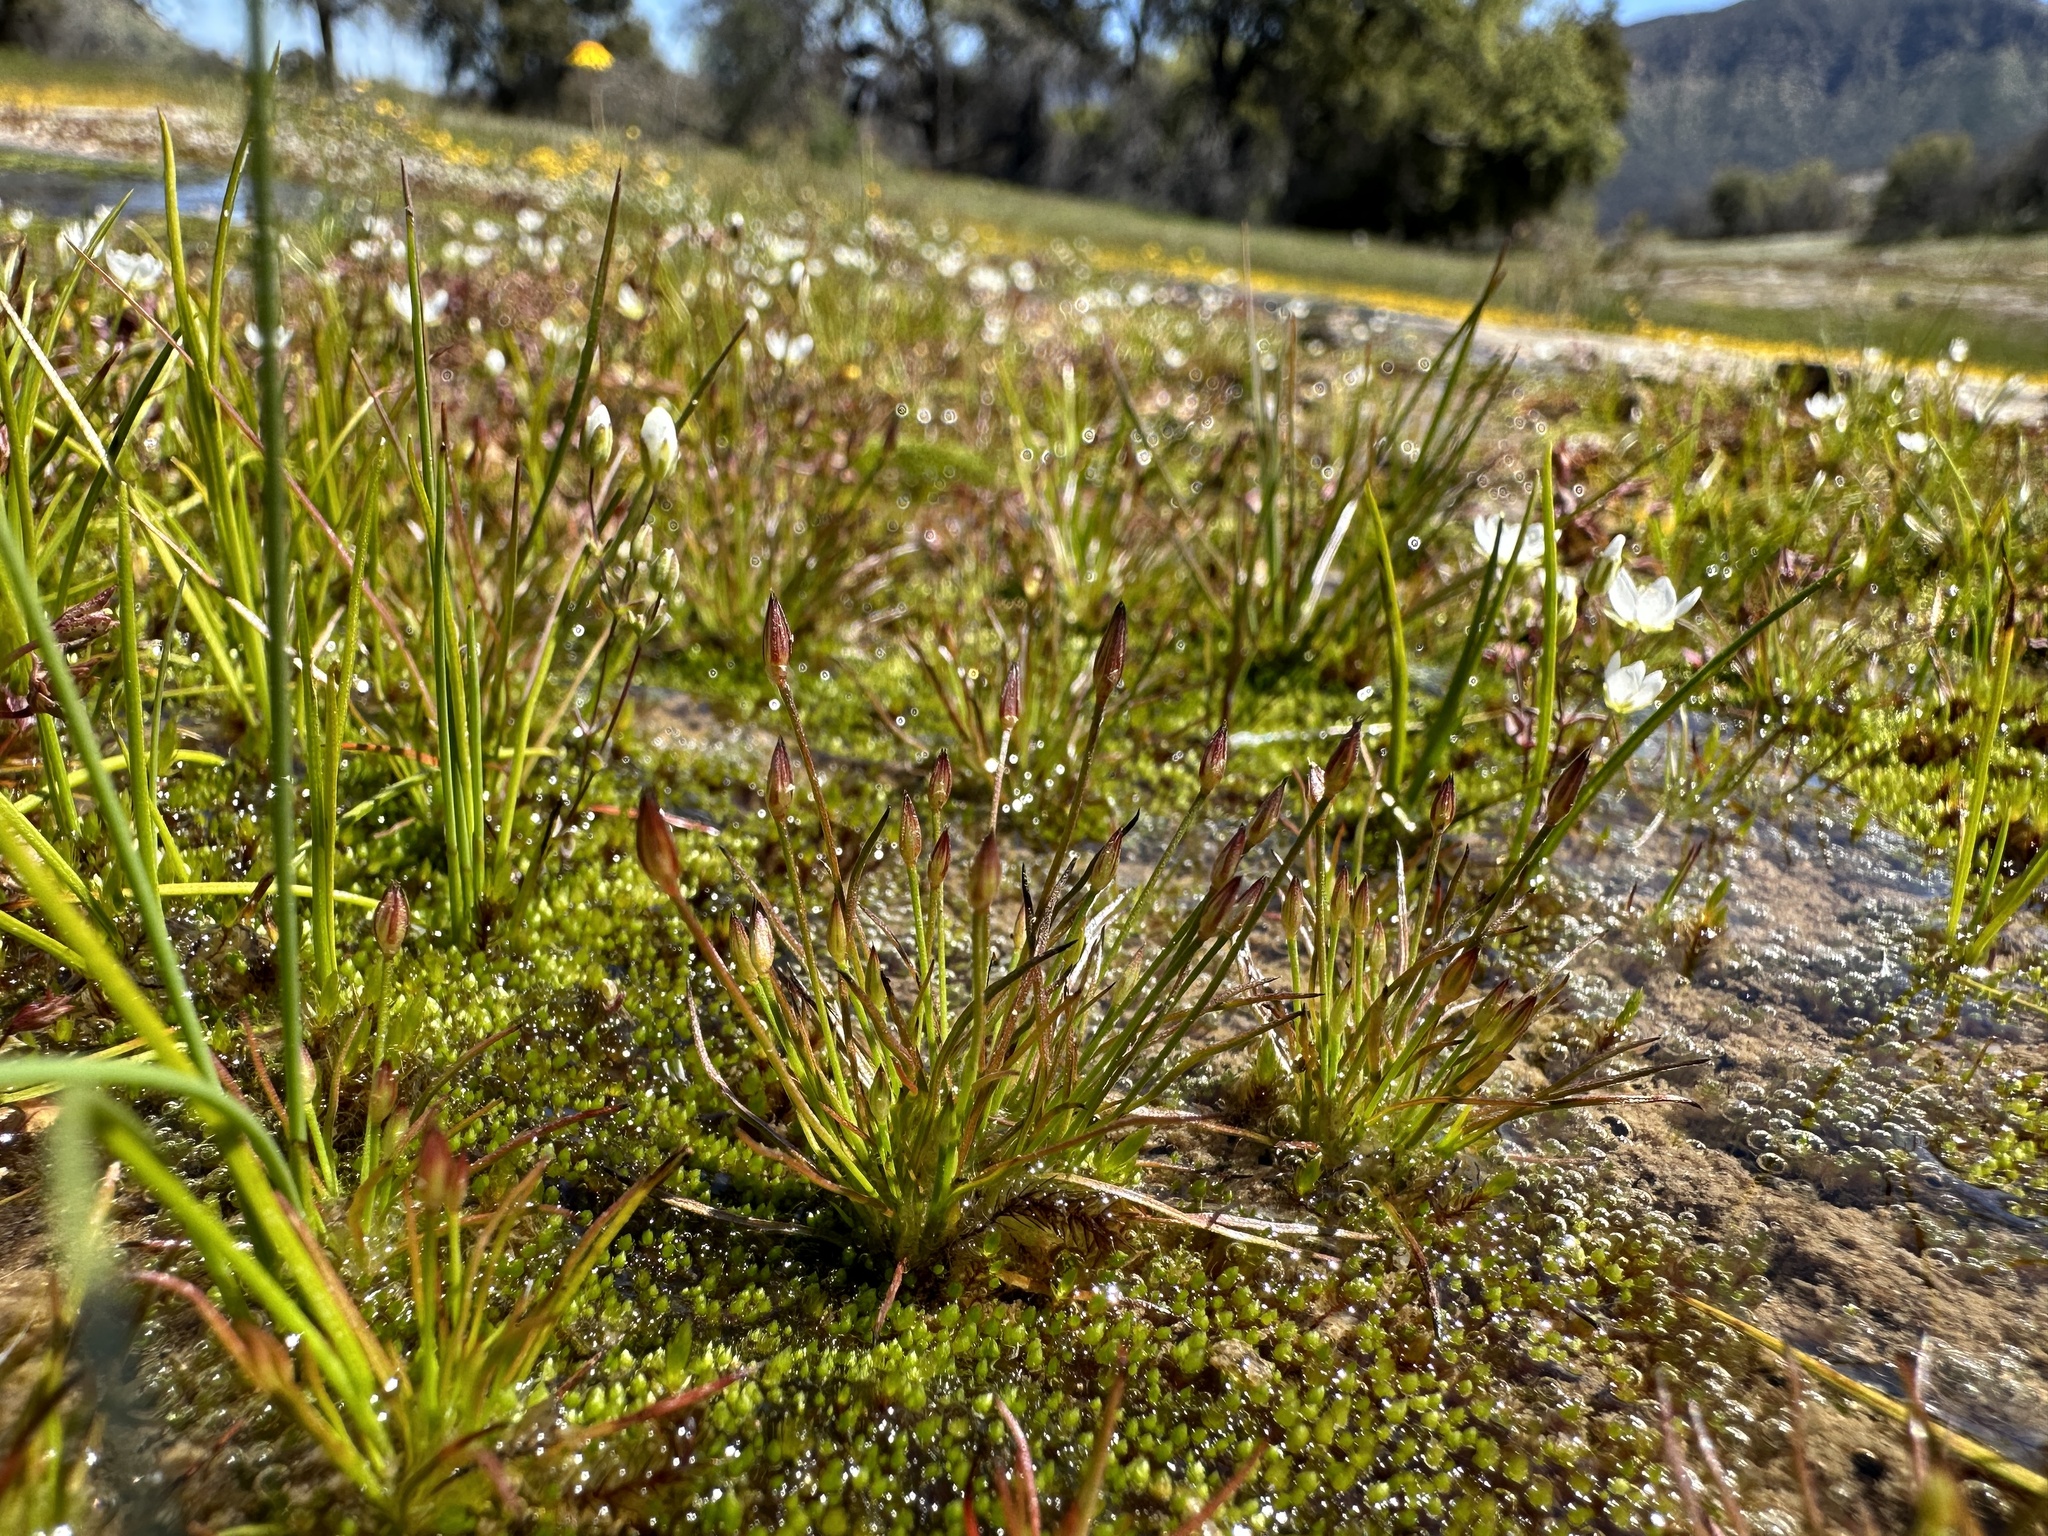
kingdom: Plantae
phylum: Tracheophyta
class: Liliopsida
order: Poales
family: Juncaceae
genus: Juncus
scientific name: Juncus luciensis
